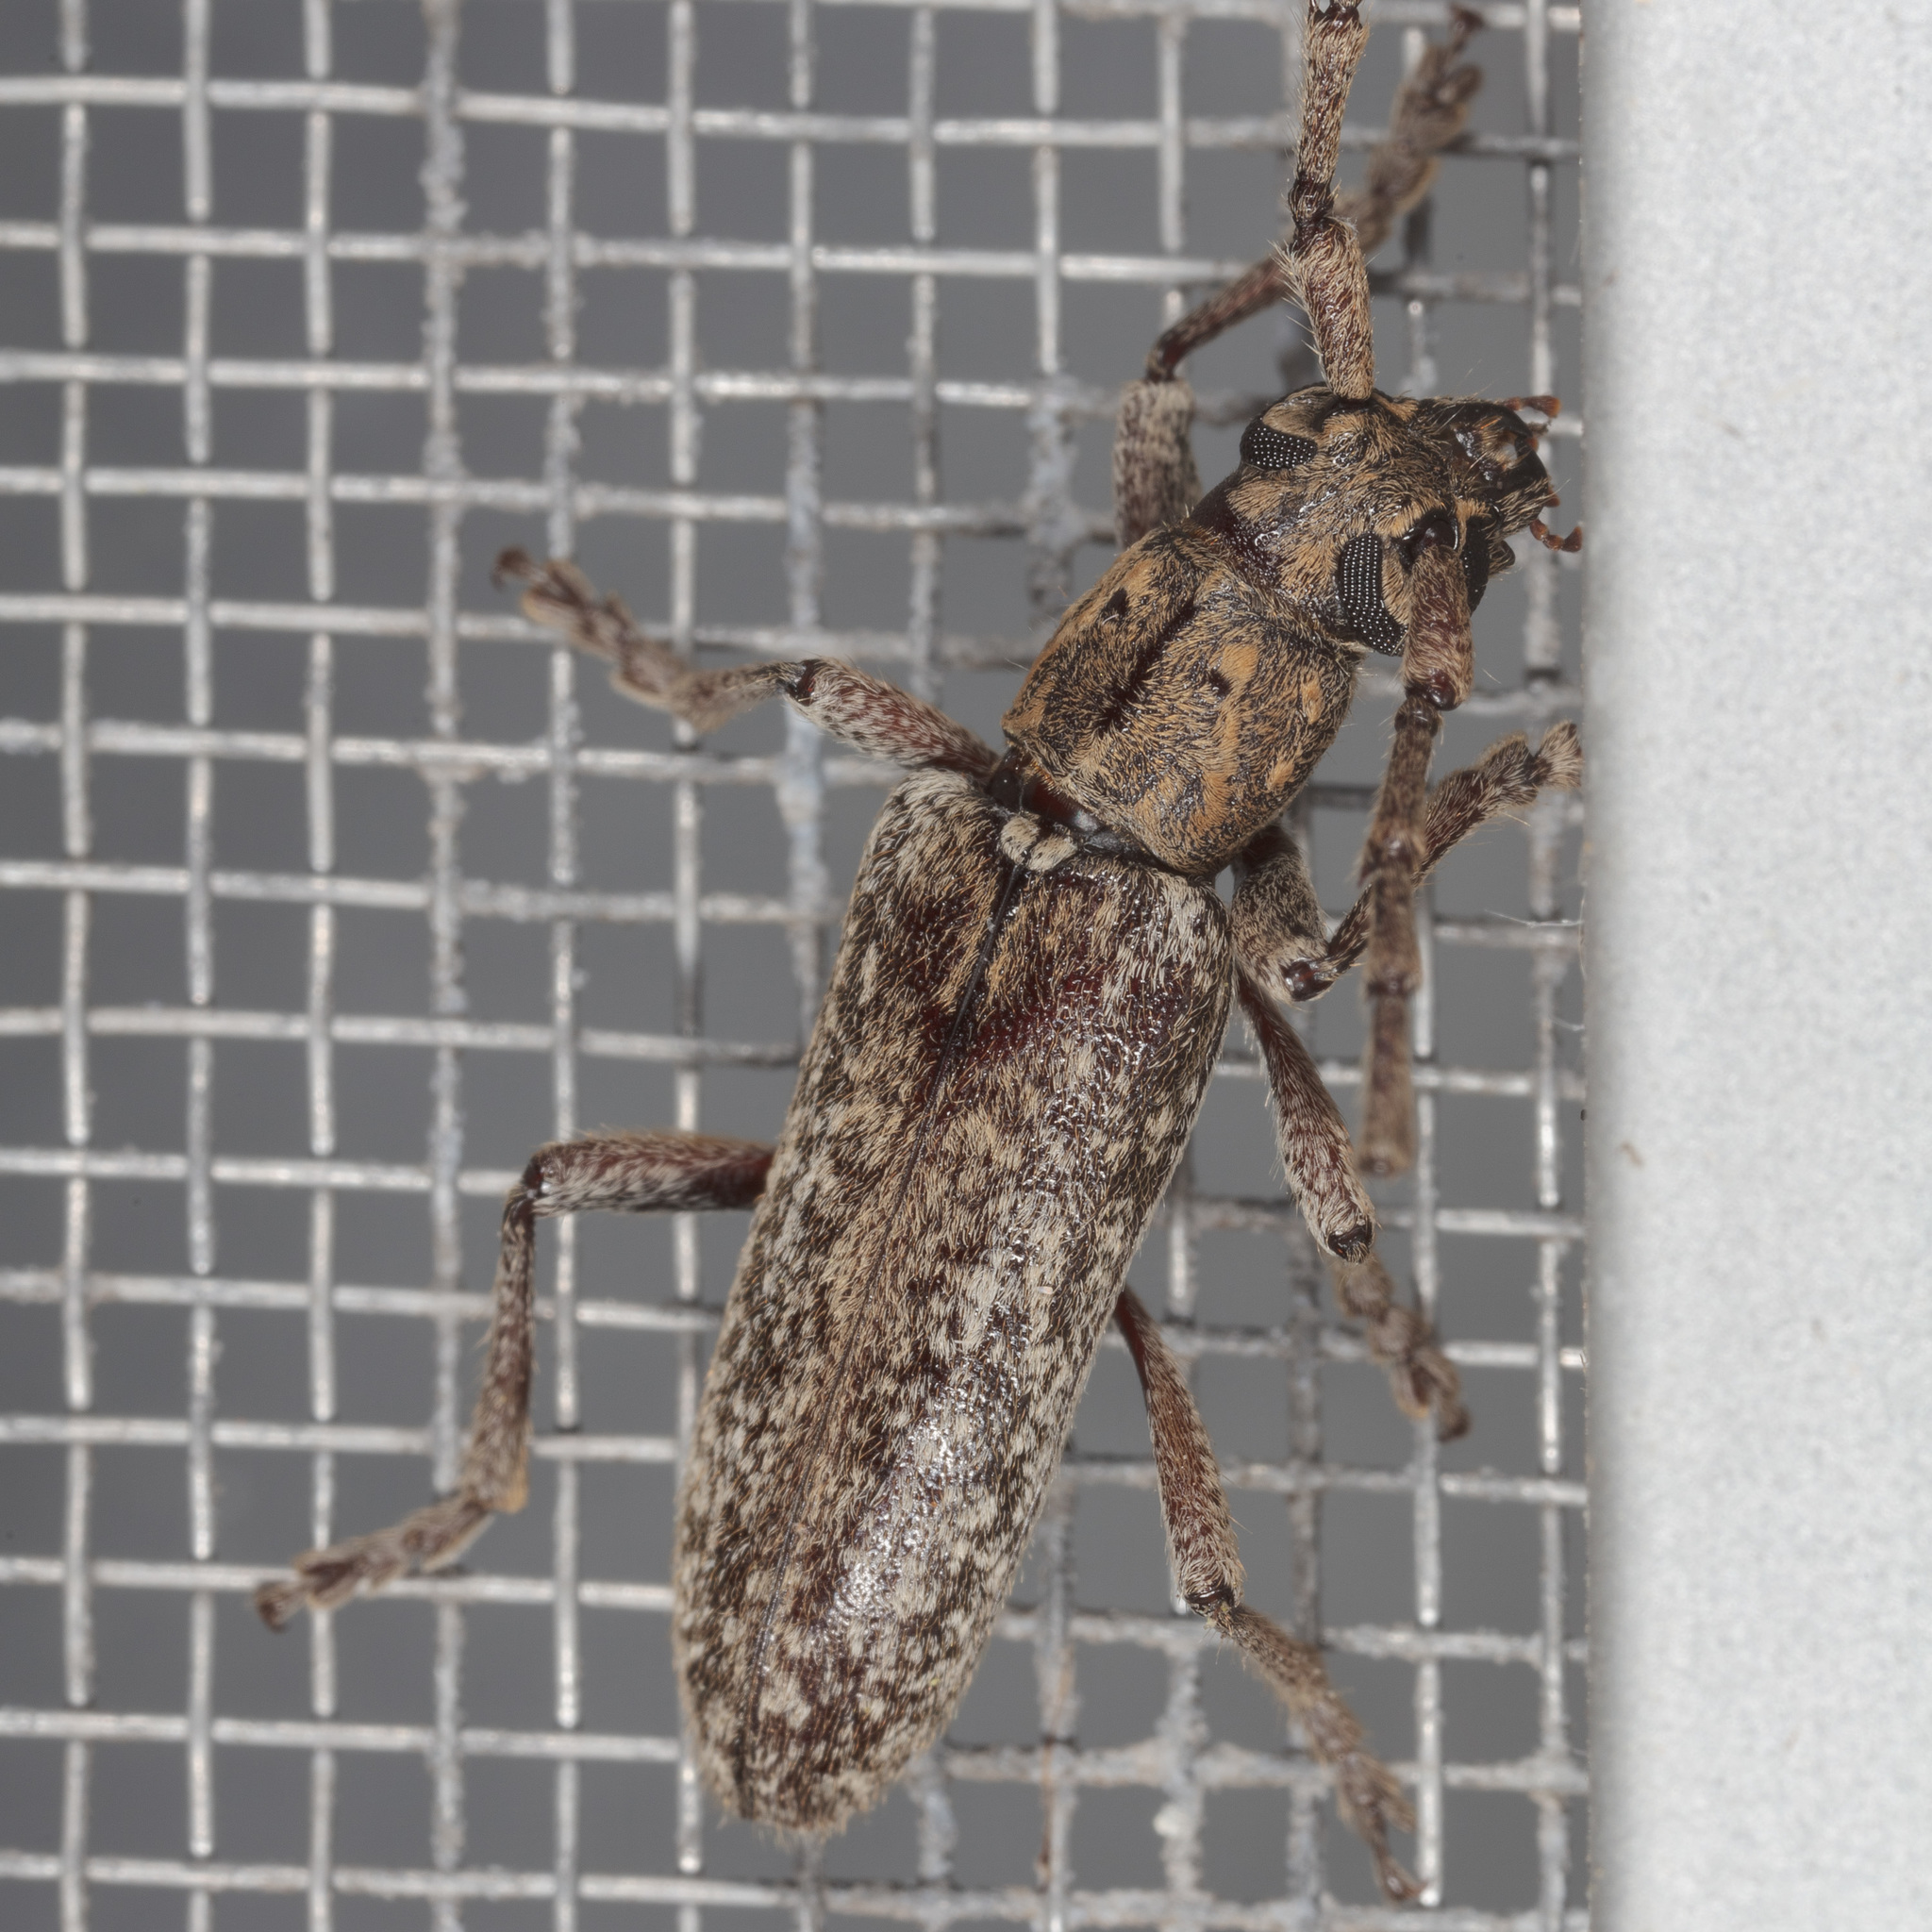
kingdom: Animalia
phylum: Arthropoda
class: Insecta
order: Coleoptera
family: Cerambycidae
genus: Anelaphus
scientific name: Anelaphus debilis
